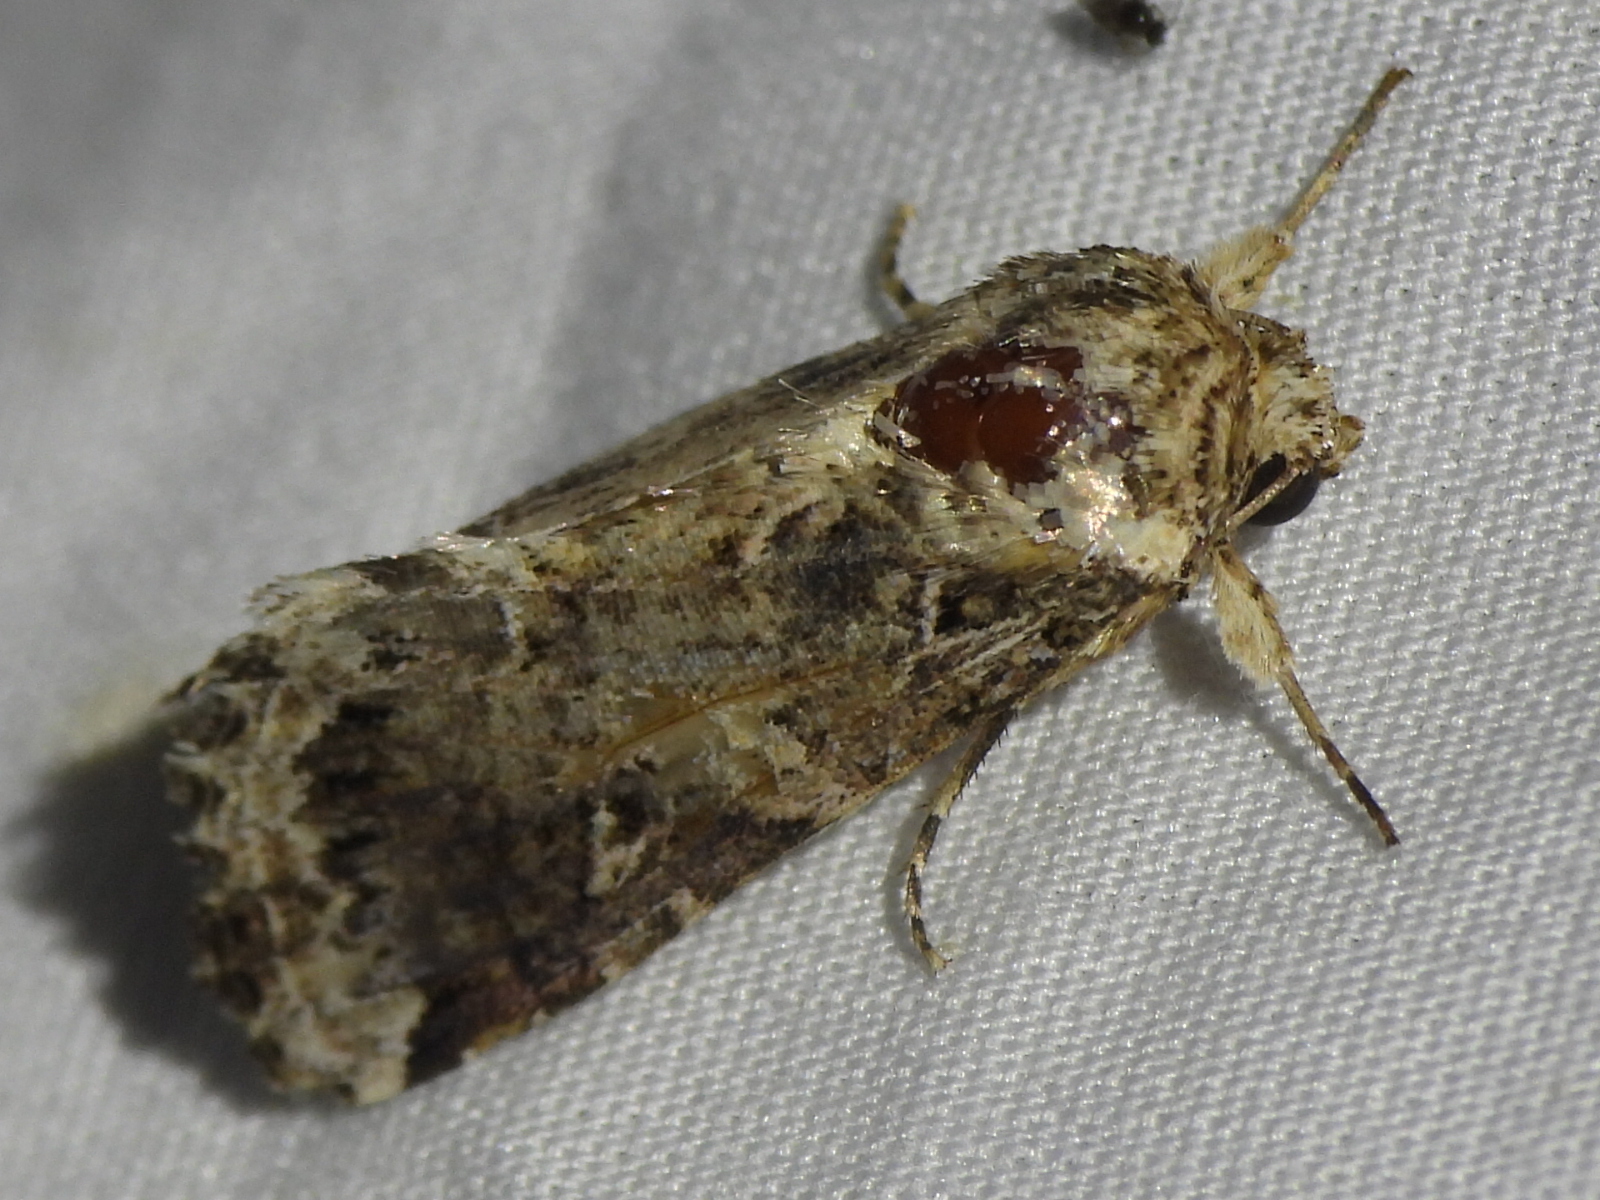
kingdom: Animalia
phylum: Arthropoda
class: Insecta
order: Lepidoptera
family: Noctuidae
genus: Spodoptera
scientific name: Spodoptera ornithogalli
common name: Yellow-striped armyworm
